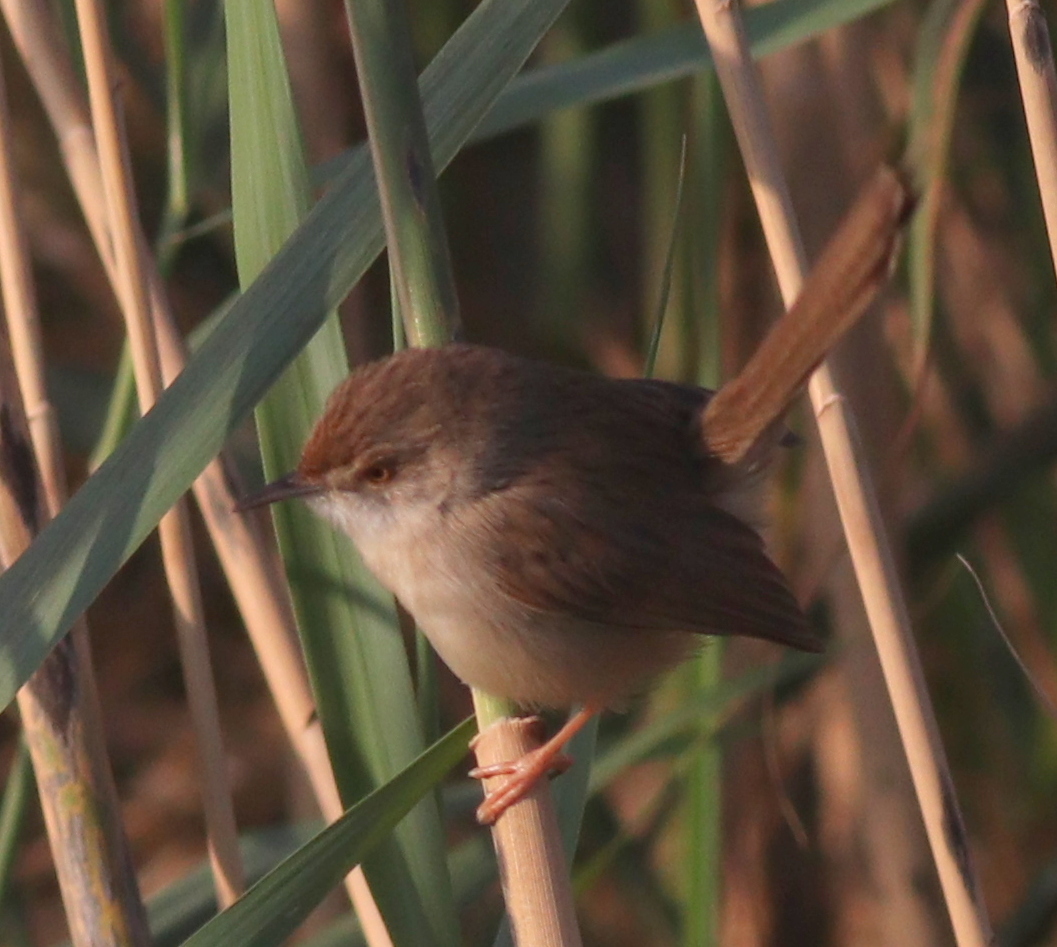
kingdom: Animalia
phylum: Chordata
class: Aves
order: Passeriformes
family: Cisticolidae
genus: Prinia
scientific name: Prinia gracilis
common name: Graceful prinia
